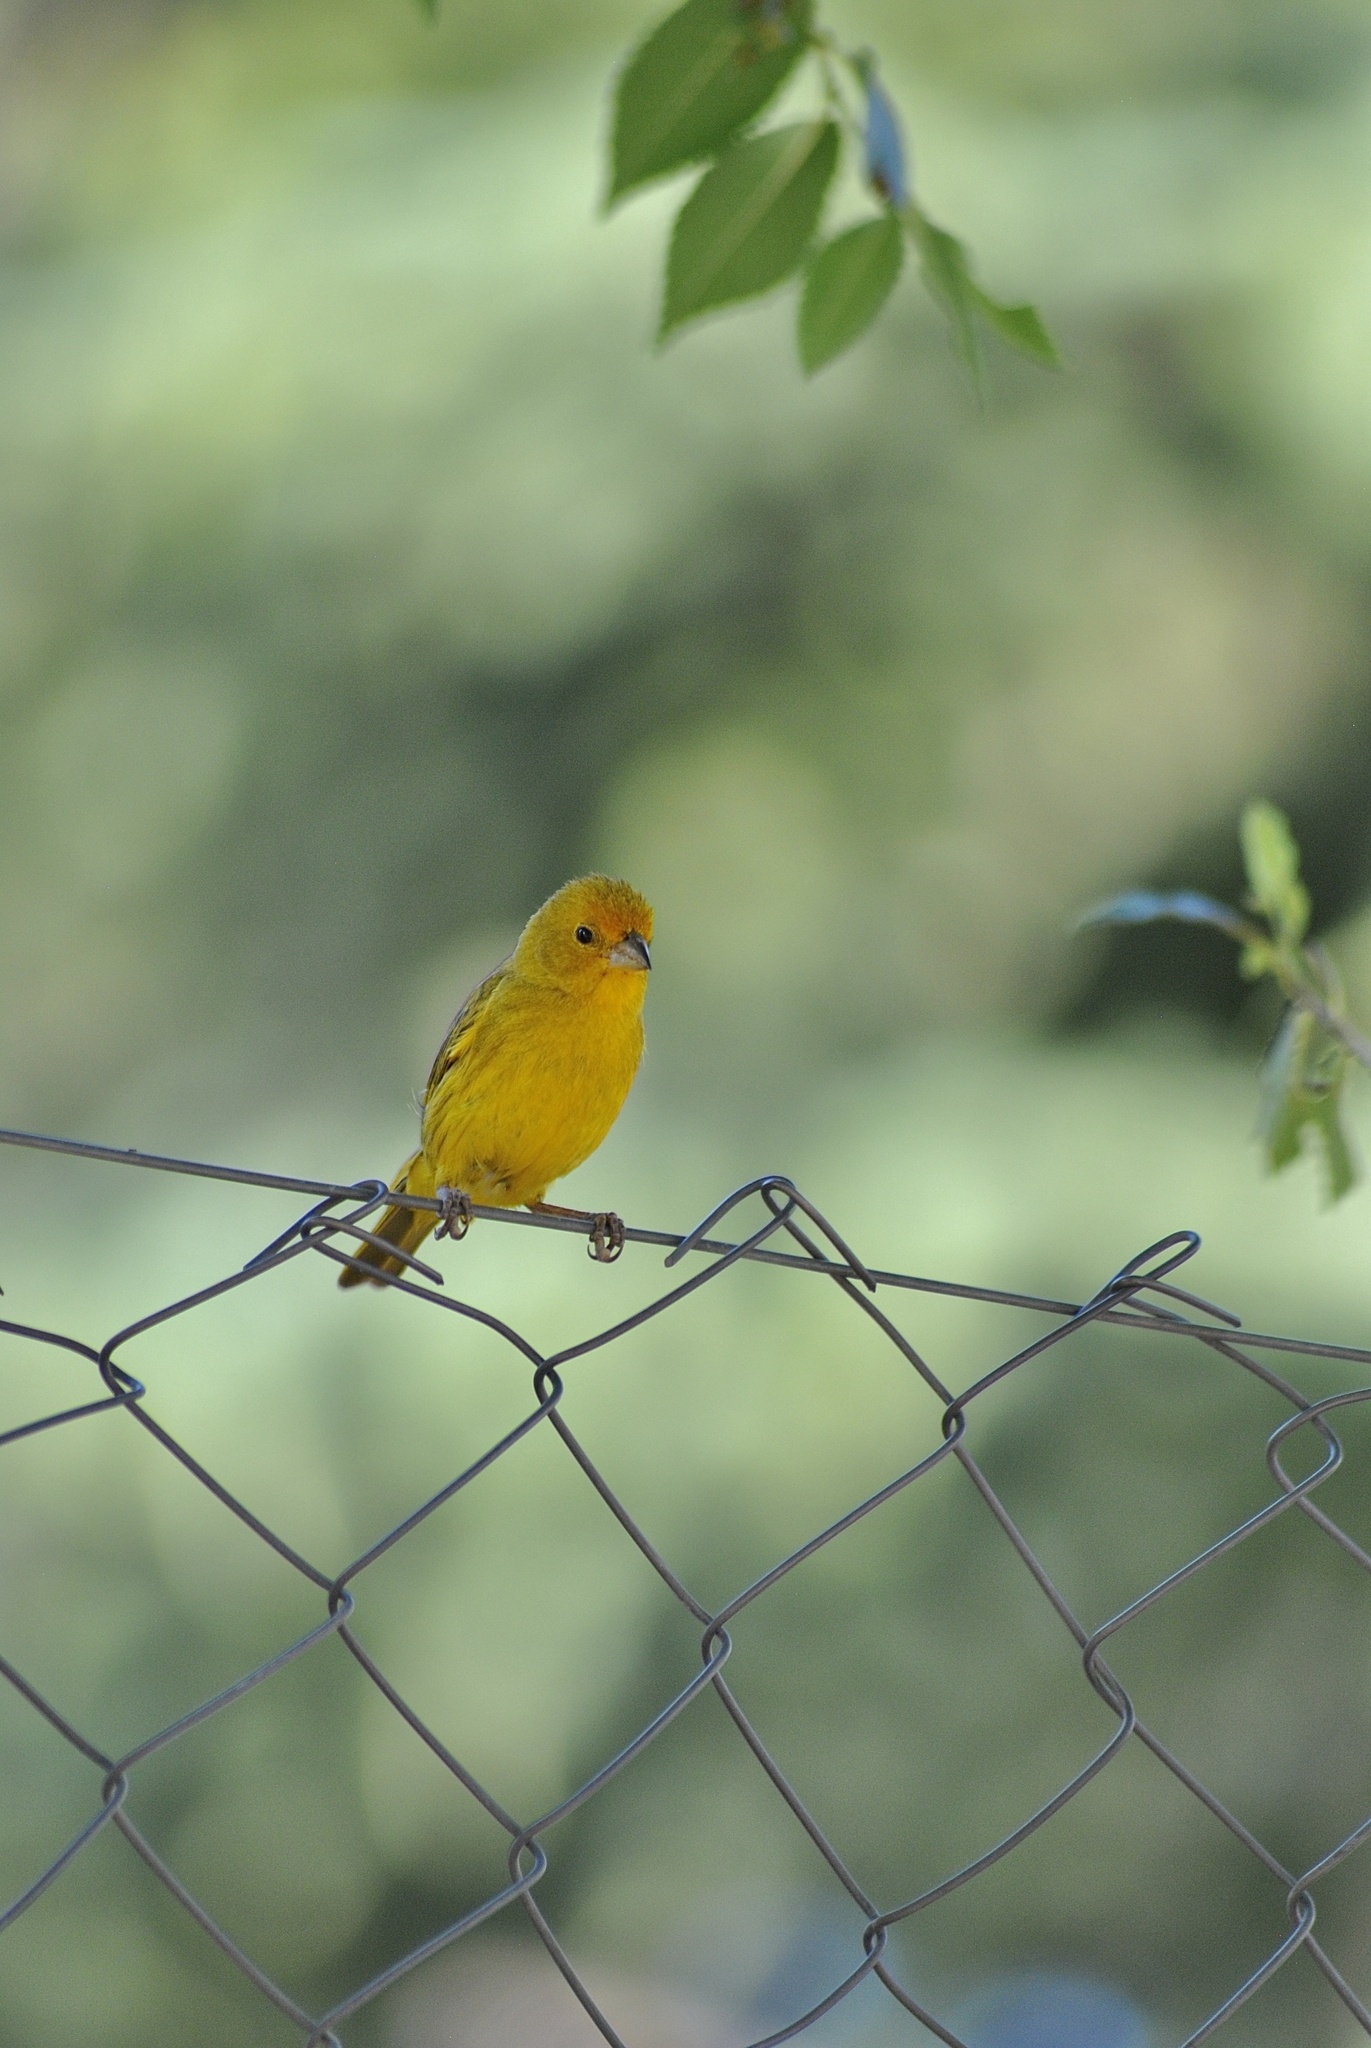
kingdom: Animalia
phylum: Chordata
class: Aves
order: Passeriformes
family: Thraupidae
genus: Sicalis
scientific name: Sicalis flaveola
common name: Saffron finch
